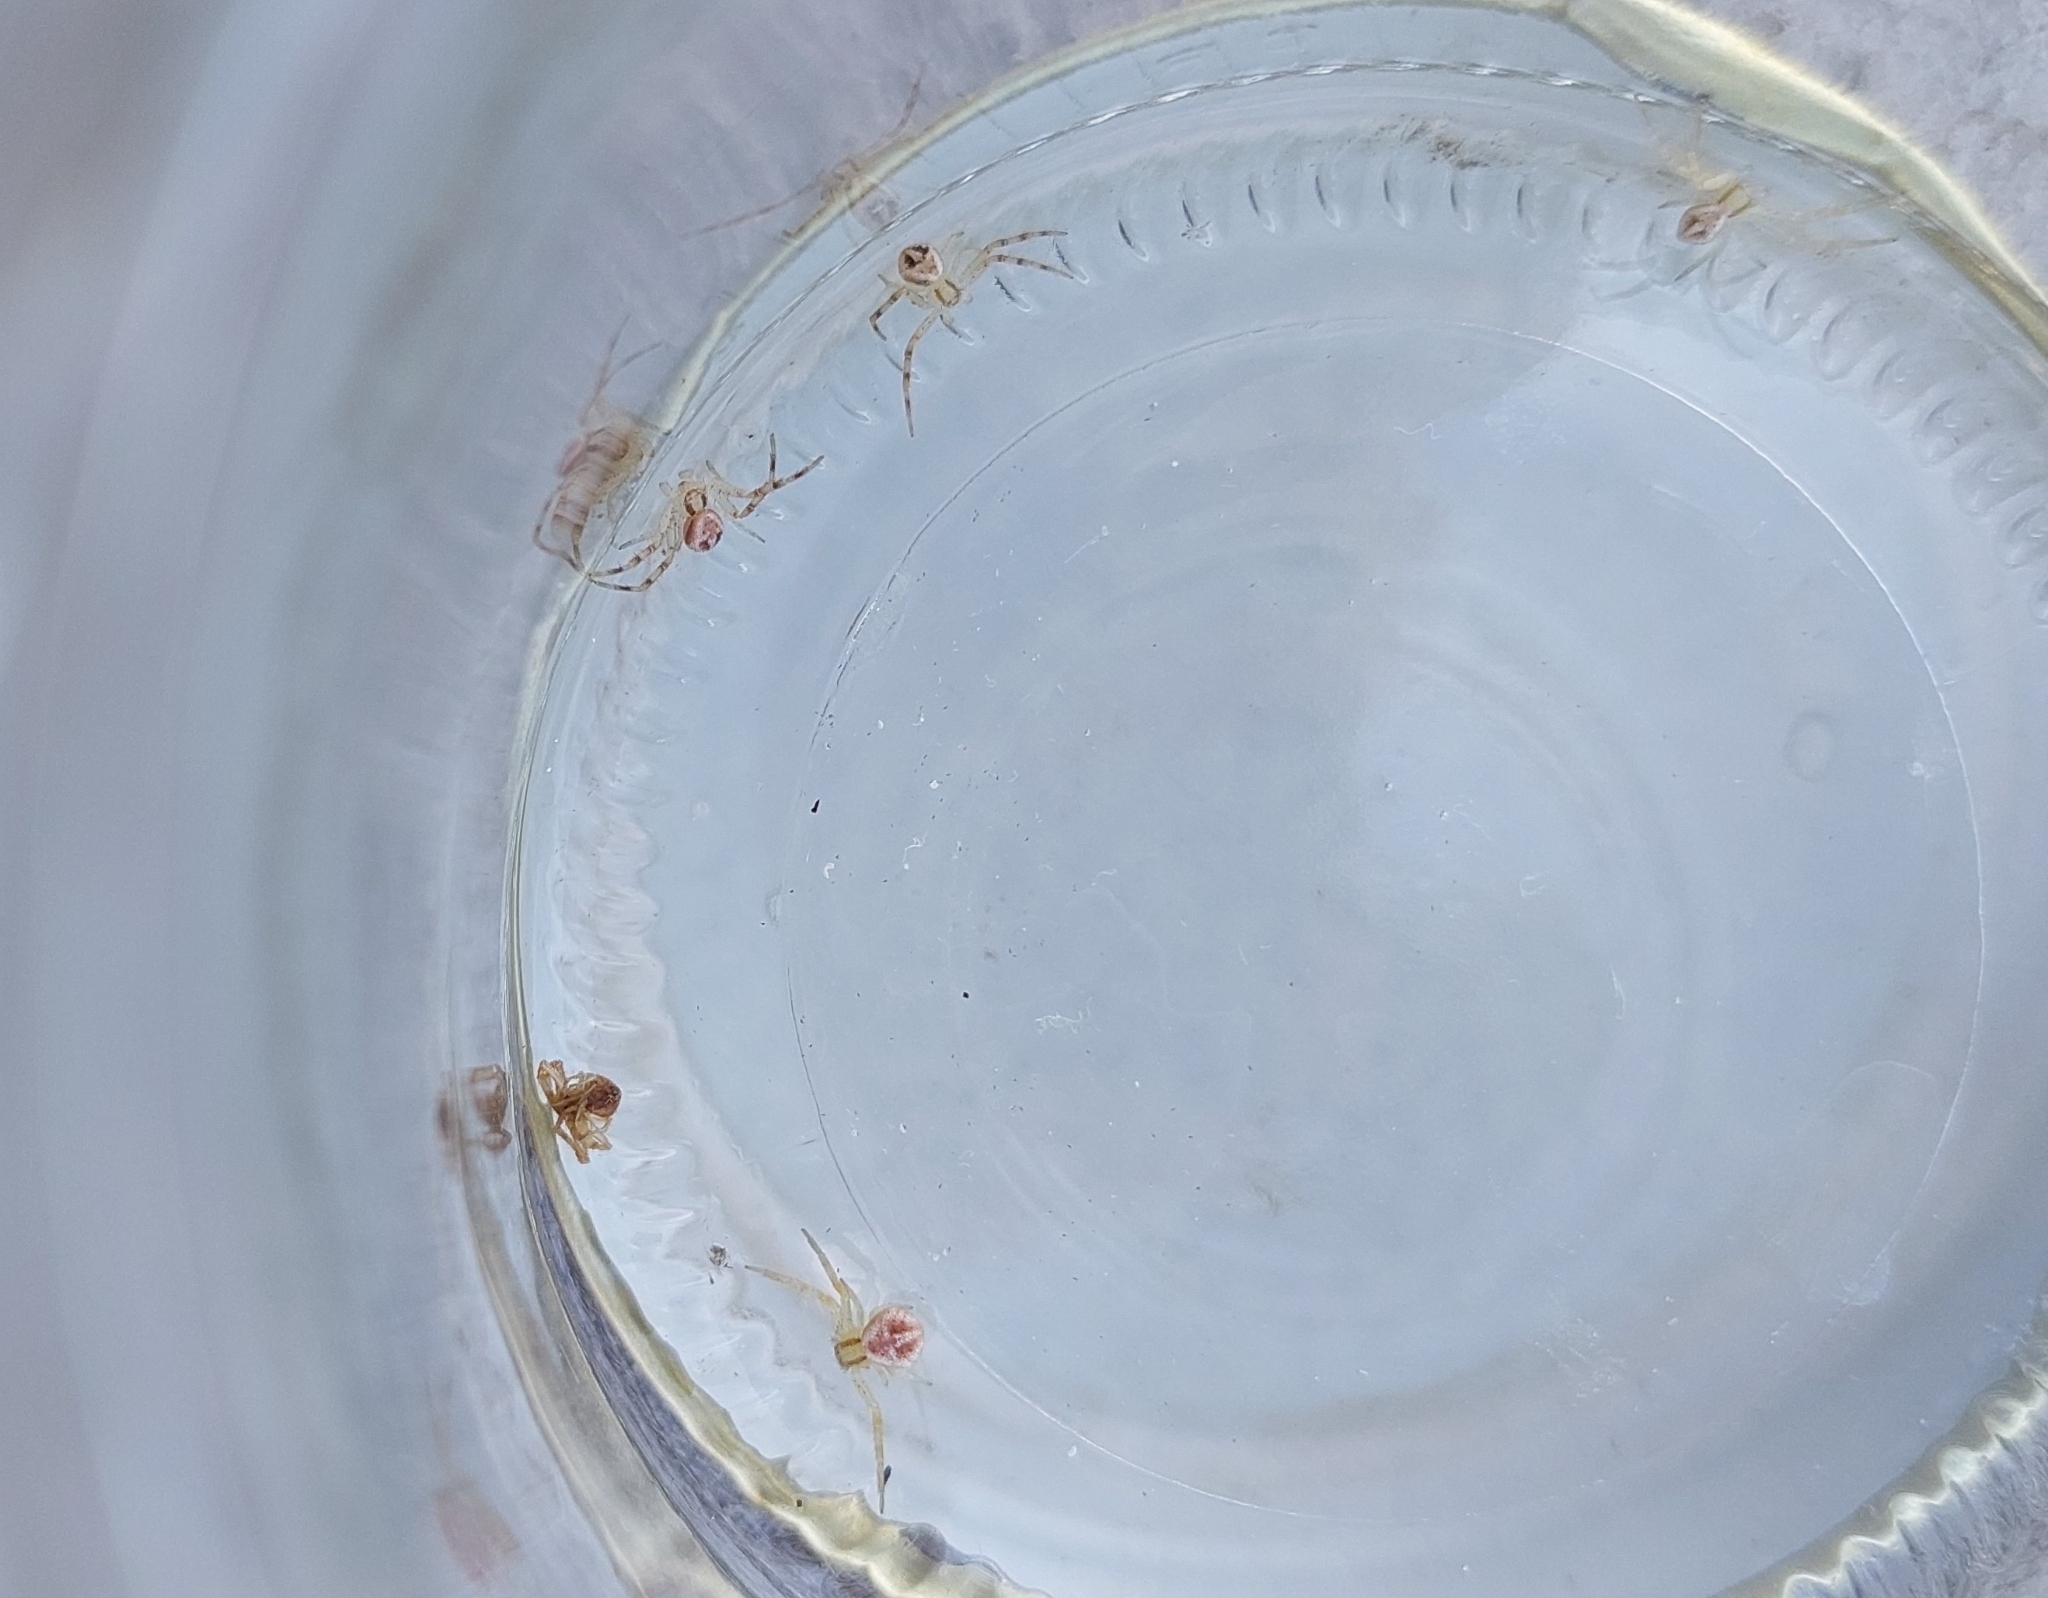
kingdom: Animalia
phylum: Arthropoda
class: Arachnida
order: Araneae
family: Thomisidae
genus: Misumenops
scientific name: Misumenops
